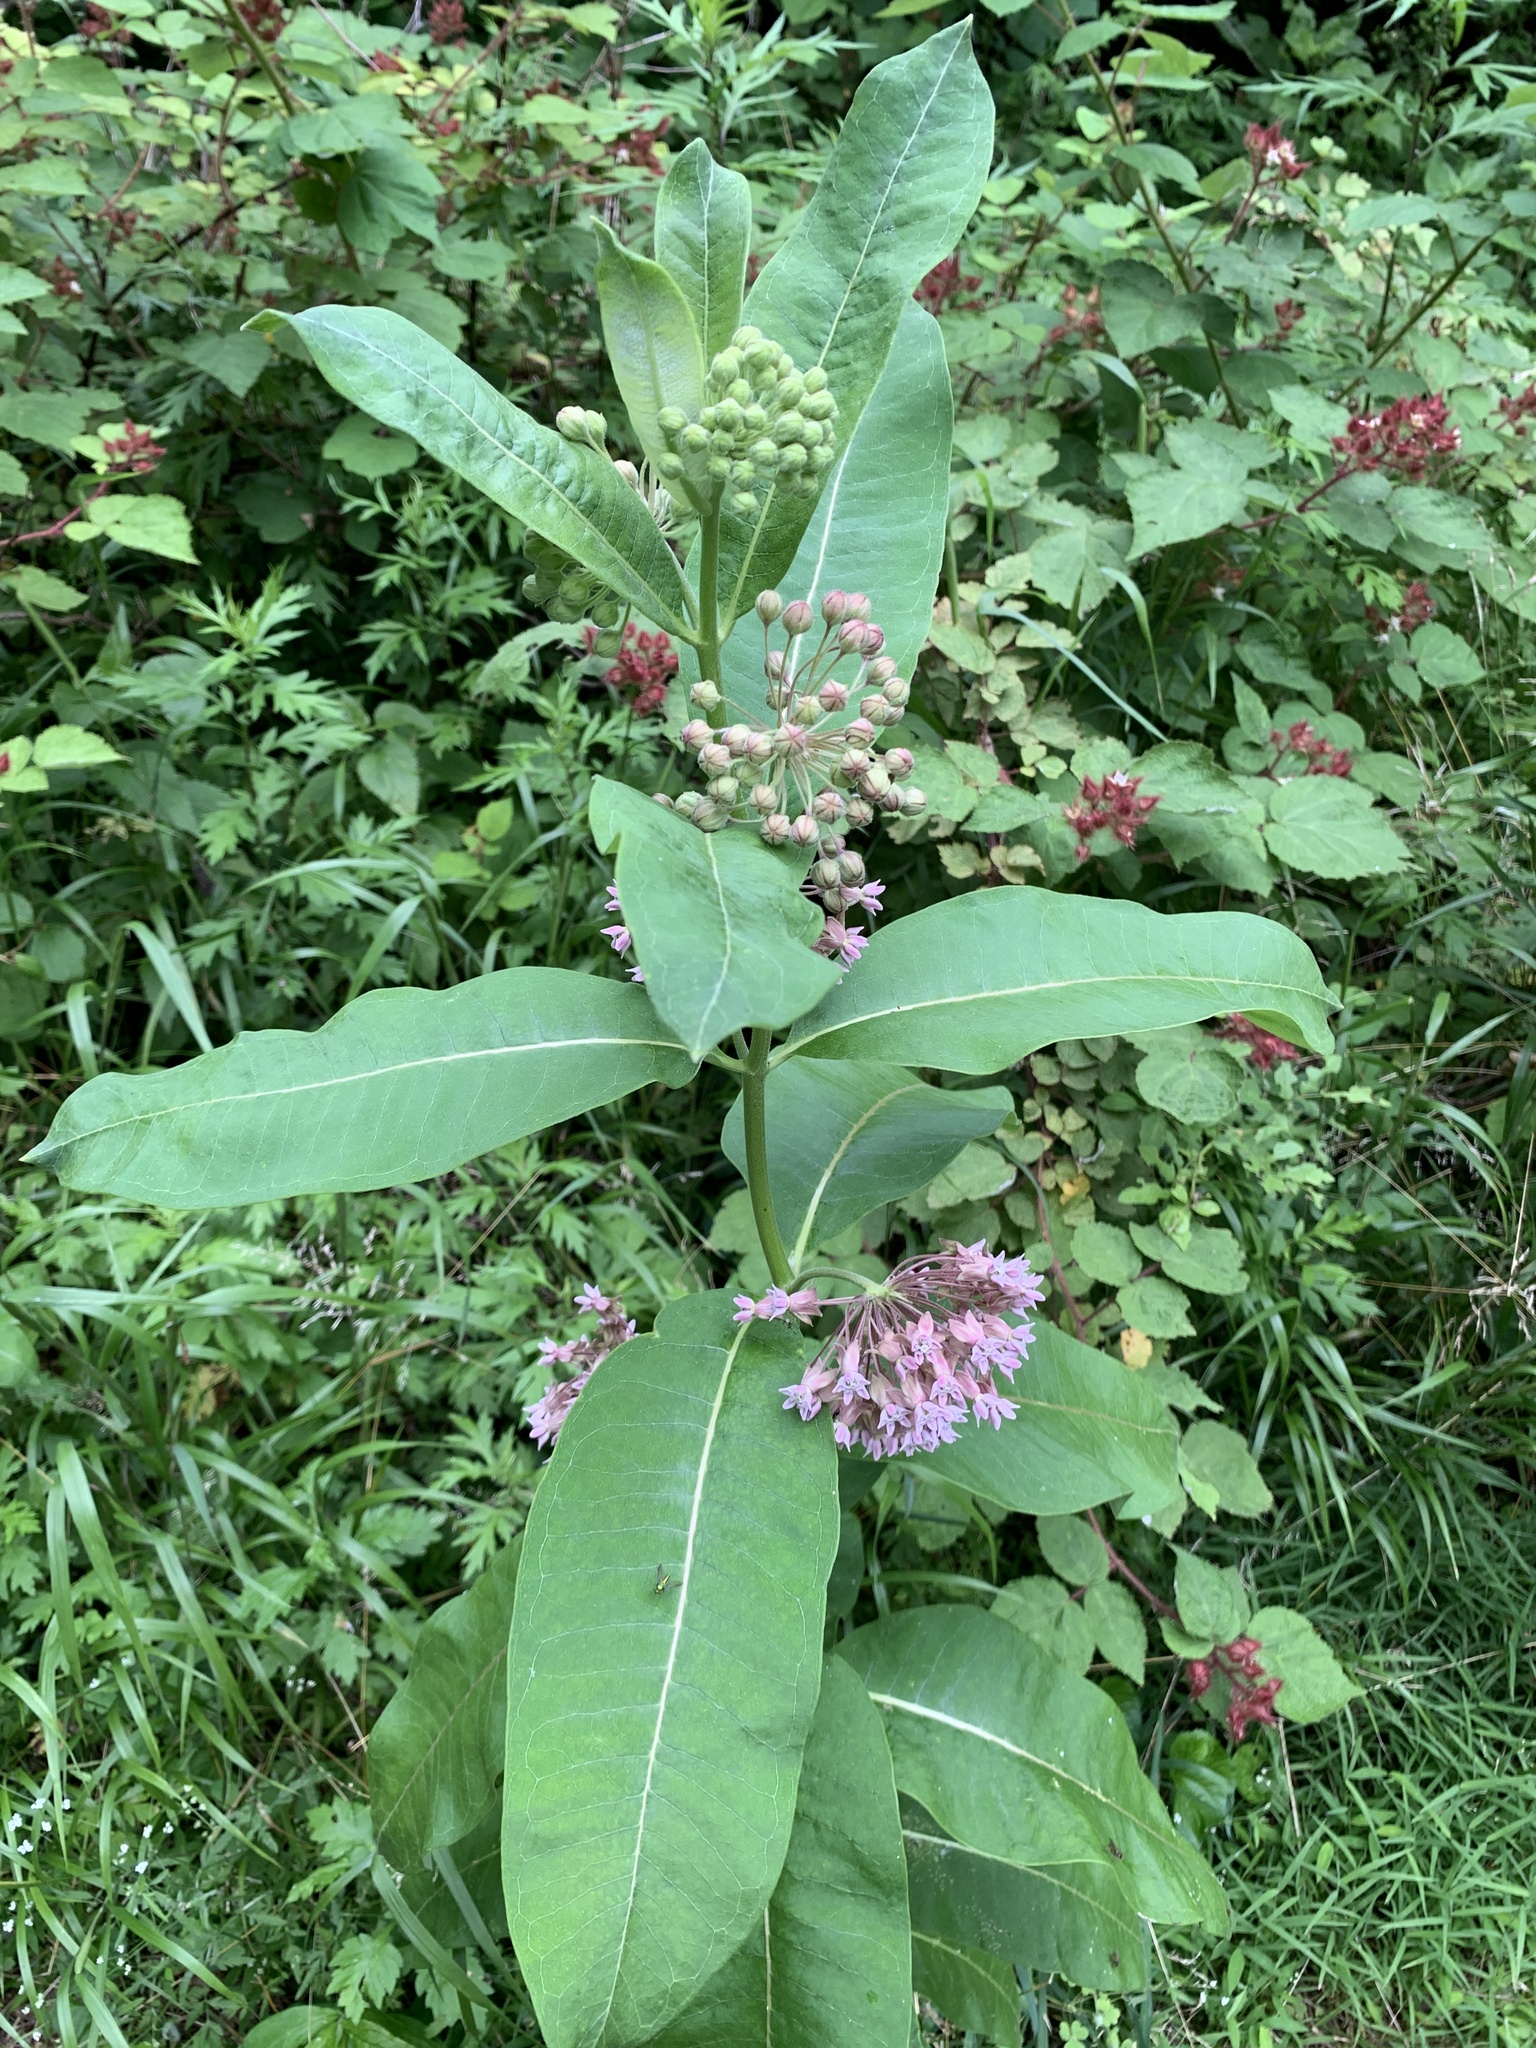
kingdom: Plantae
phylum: Tracheophyta
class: Magnoliopsida
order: Gentianales
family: Apocynaceae
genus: Asclepias
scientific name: Asclepias syriaca
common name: Common milkweed
